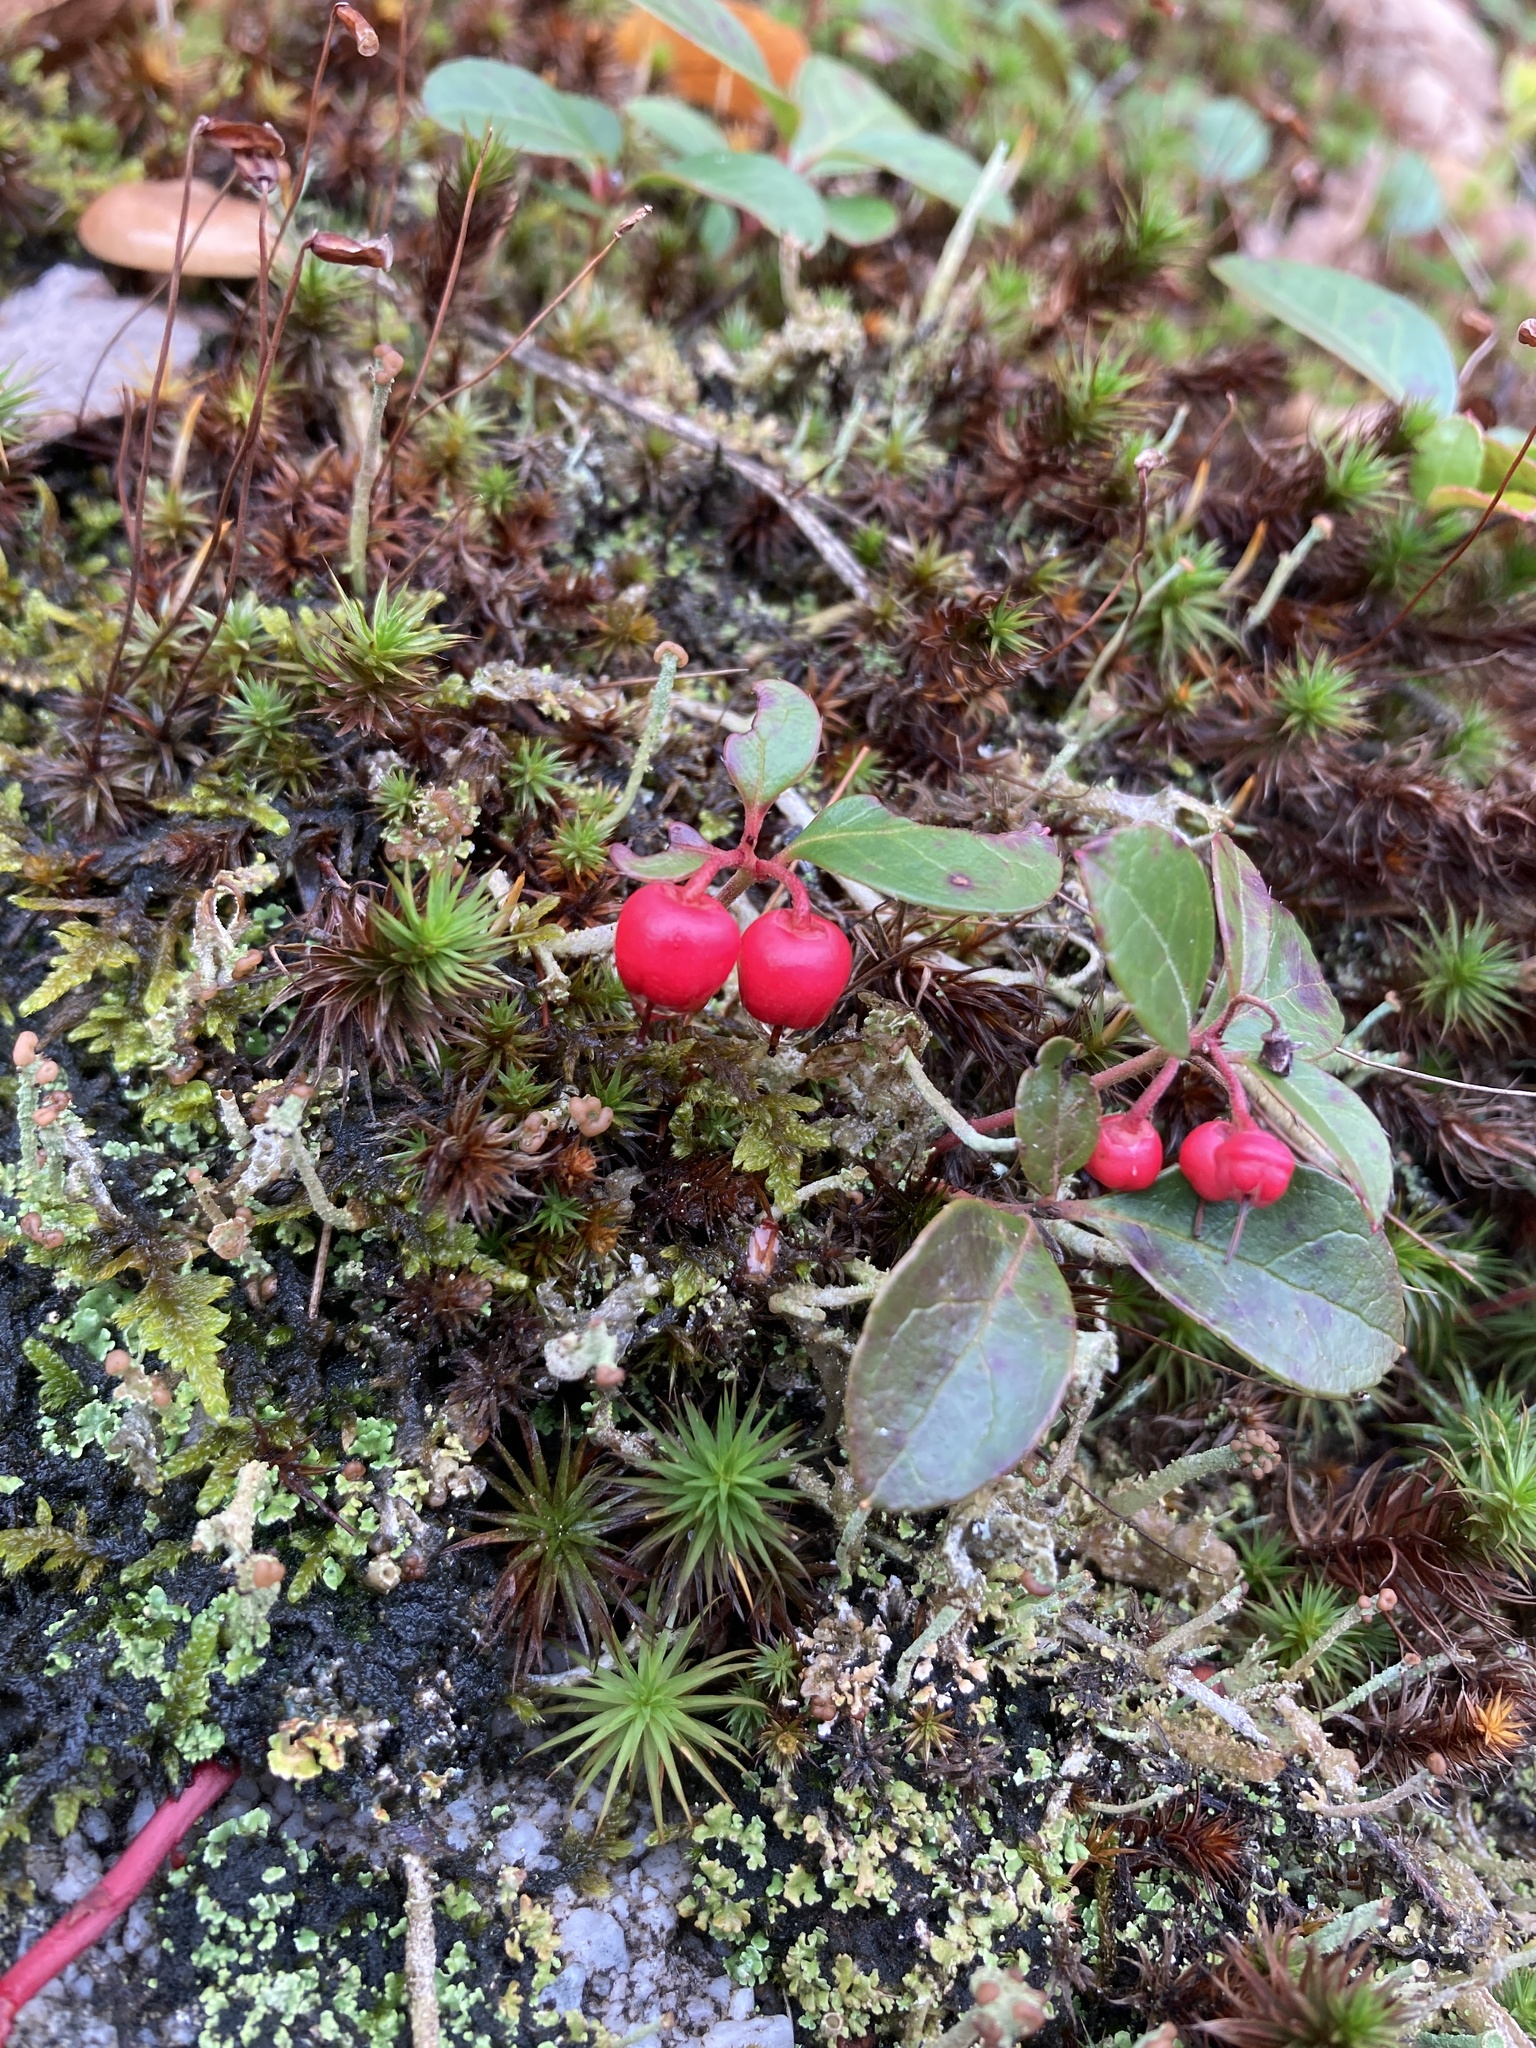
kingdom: Plantae
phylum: Tracheophyta
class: Magnoliopsida
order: Ericales
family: Ericaceae
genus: Gaultheria
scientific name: Gaultheria procumbens
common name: Checkerberry
